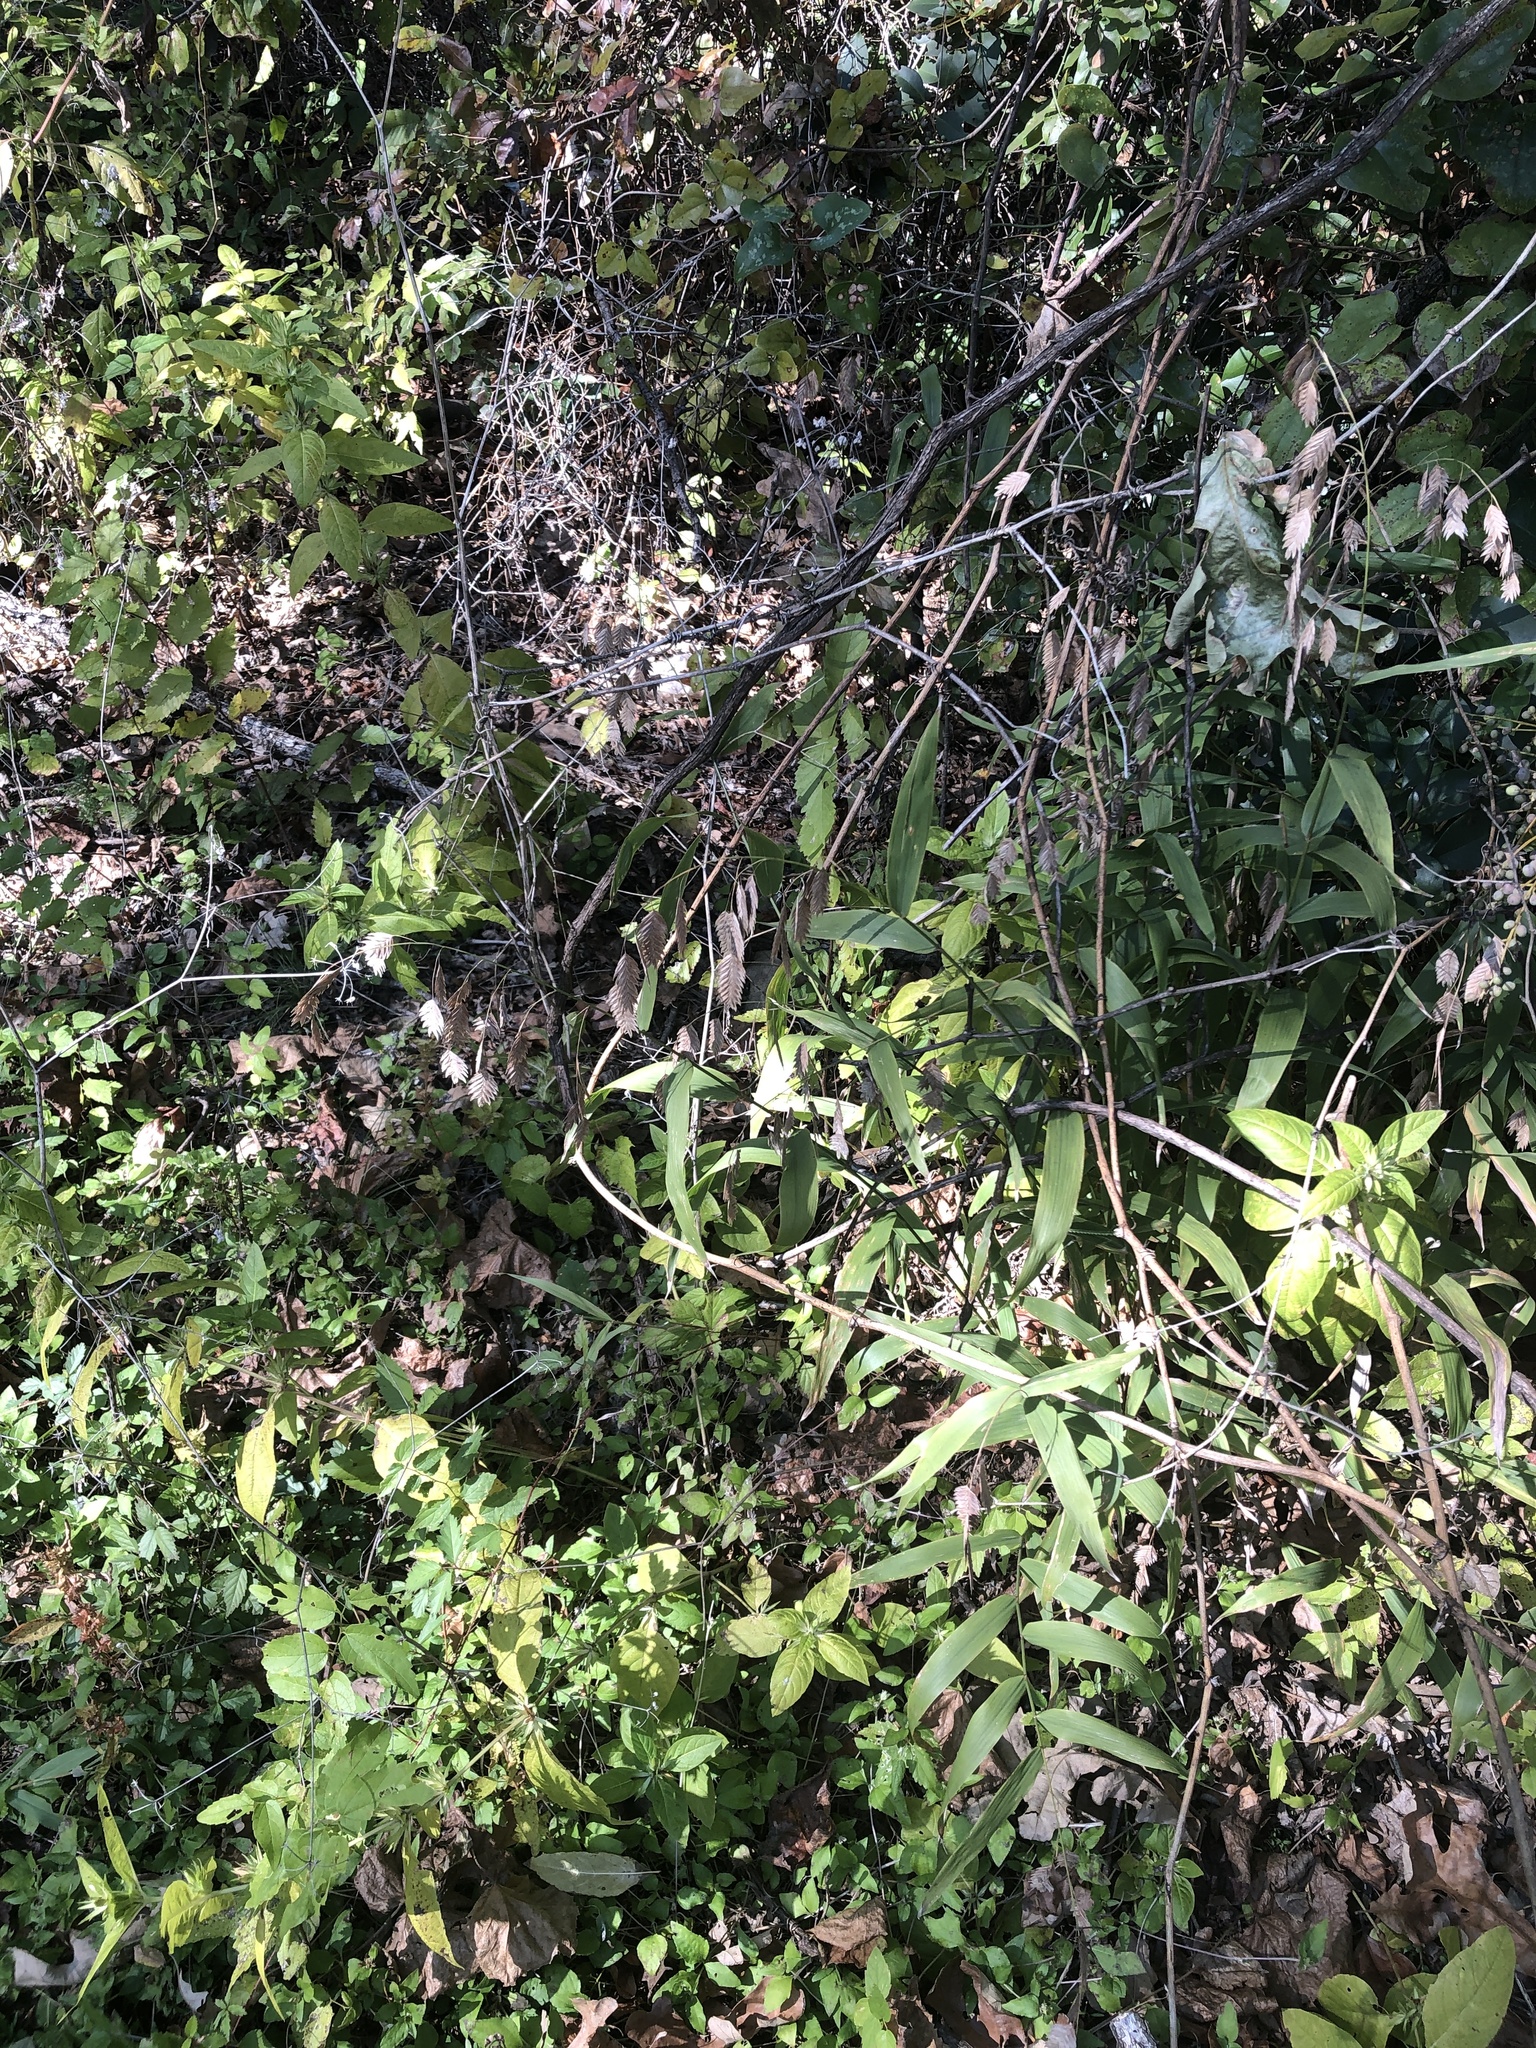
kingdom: Plantae
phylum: Tracheophyta
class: Liliopsida
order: Poales
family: Poaceae
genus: Chasmanthium
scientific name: Chasmanthium latifolium
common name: Broad-leaved chasmanthium
